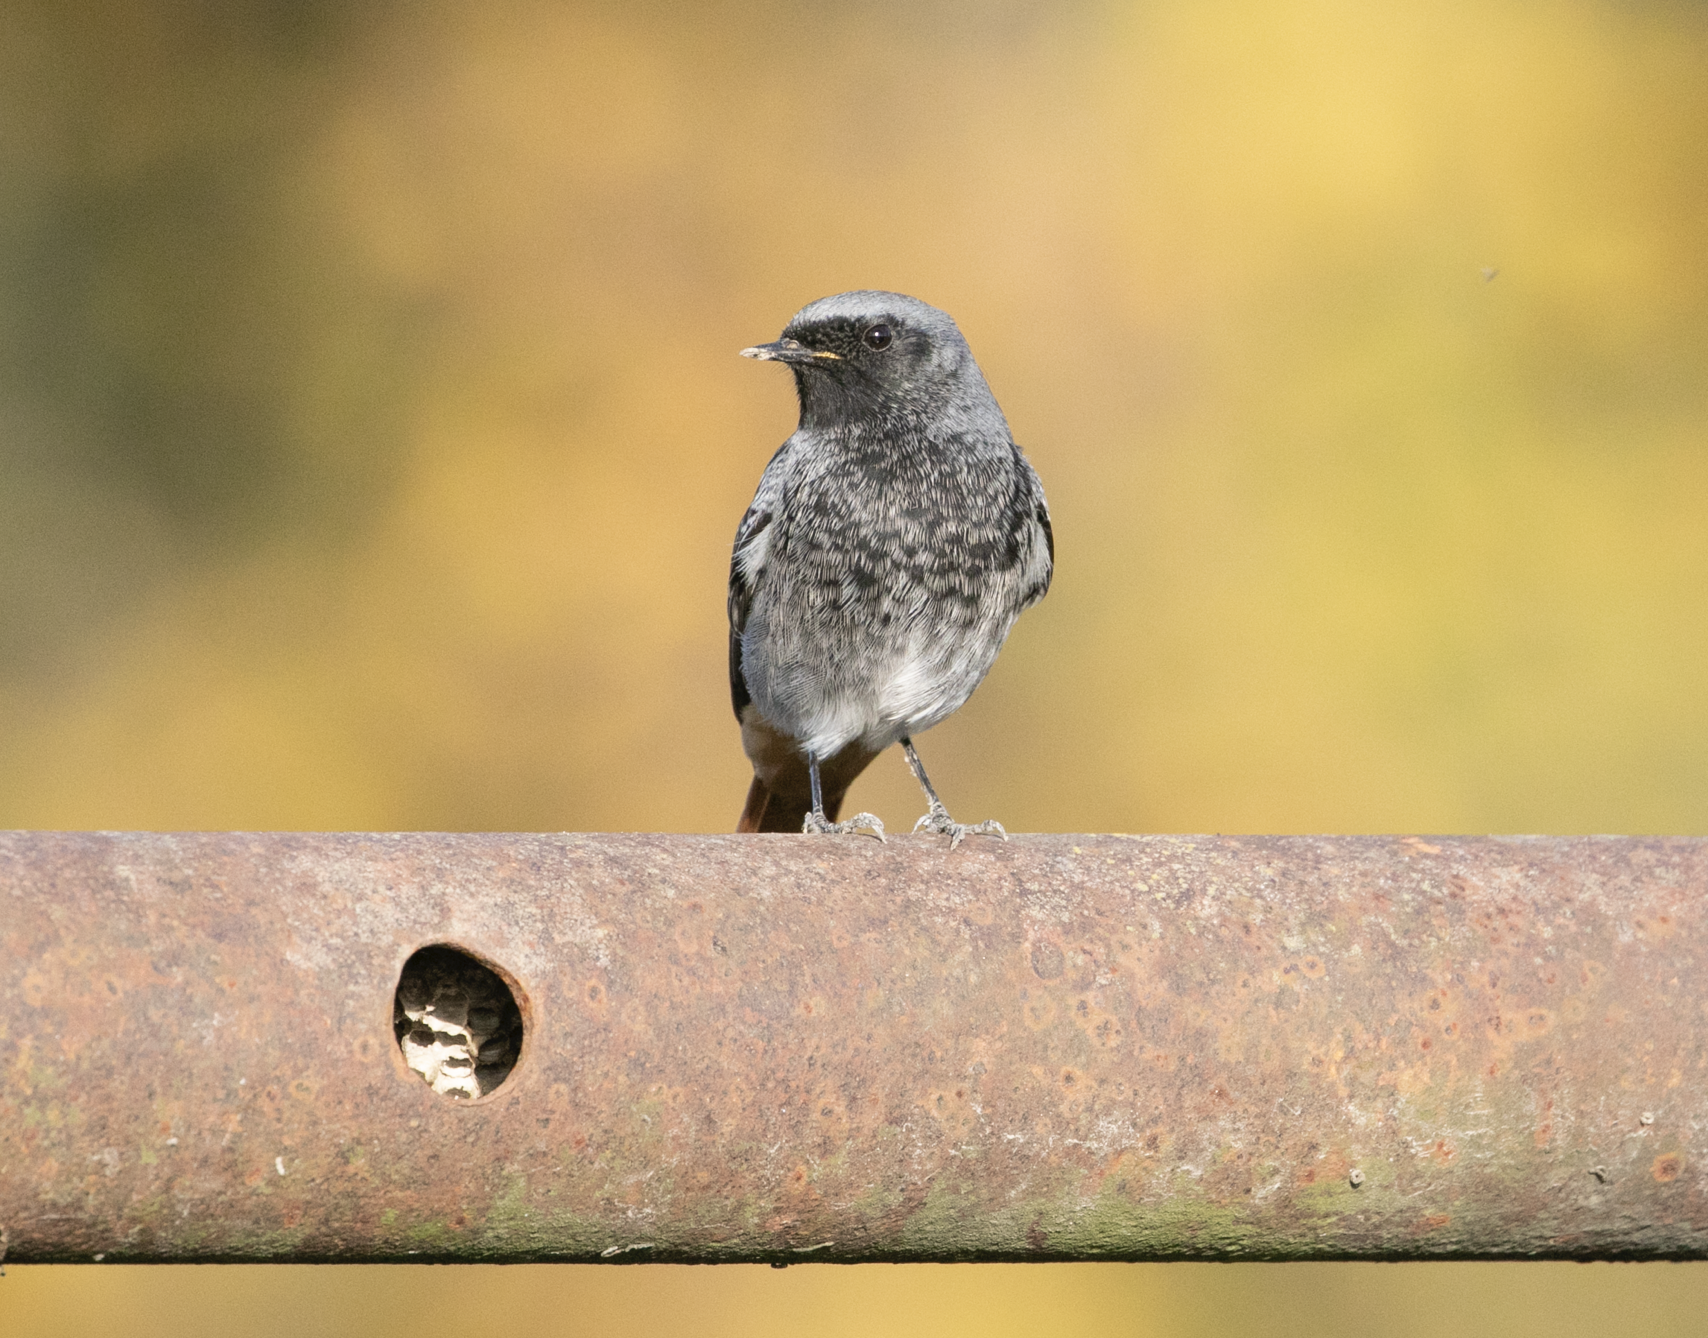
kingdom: Animalia
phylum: Chordata
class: Aves
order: Passeriformes
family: Muscicapidae
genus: Phoenicurus
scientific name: Phoenicurus ochruros
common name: Black redstart
